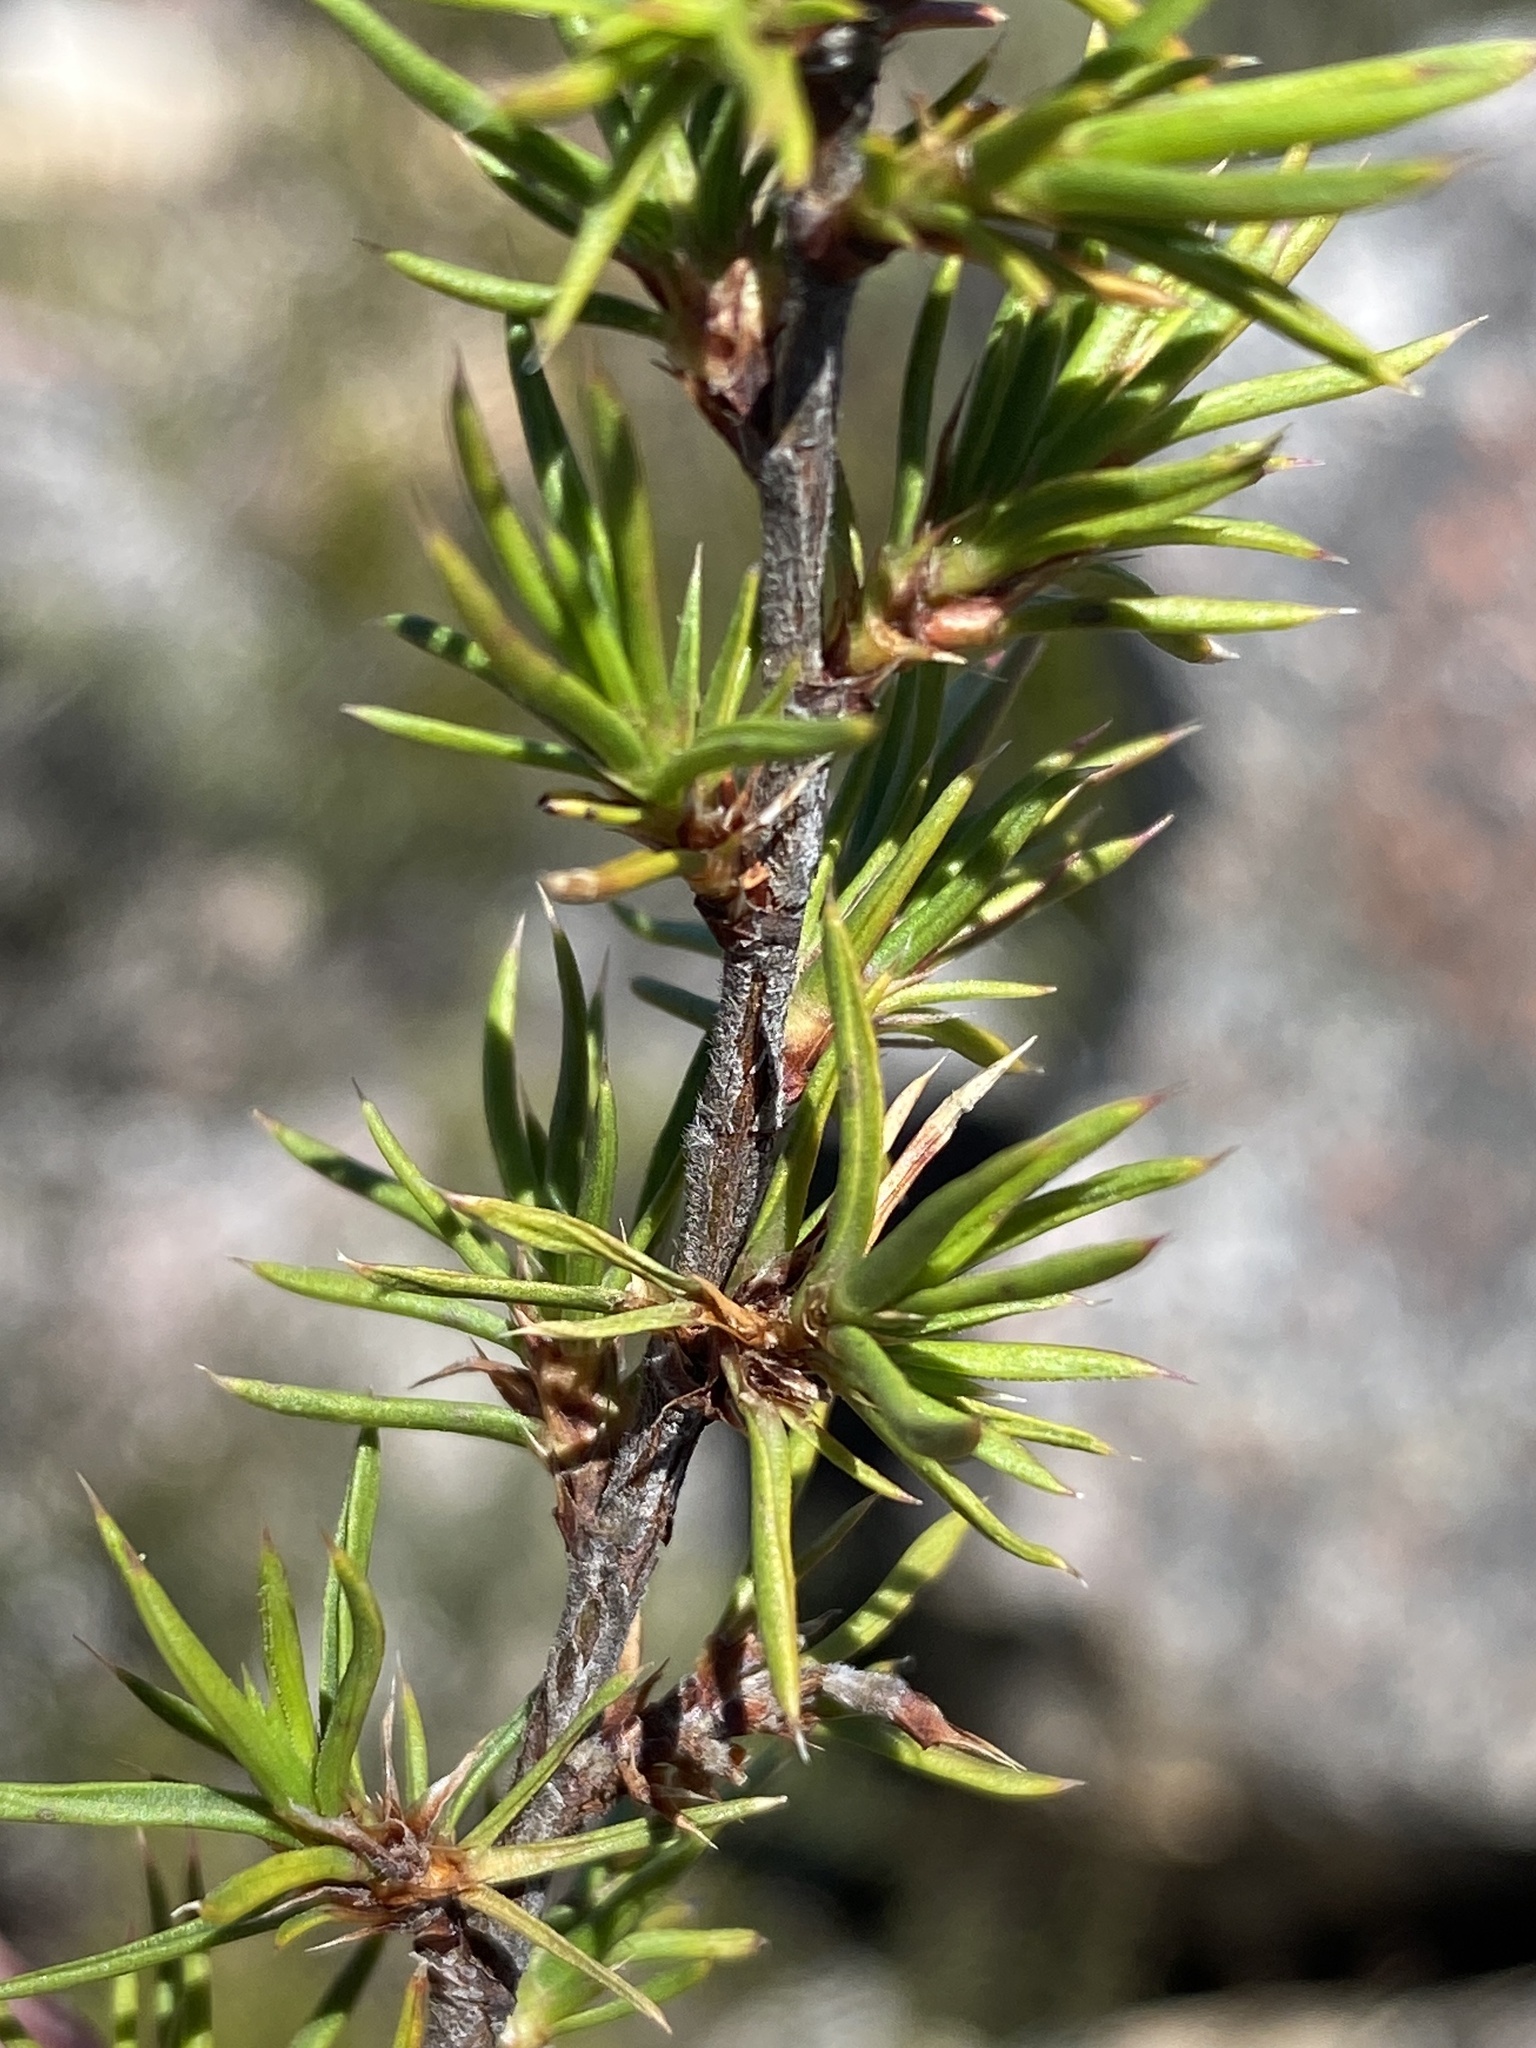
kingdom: Plantae
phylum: Tracheophyta
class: Magnoliopsida
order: Rosales
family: Rosaceae
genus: Cliffortia
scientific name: Cliffortia tuberculata
